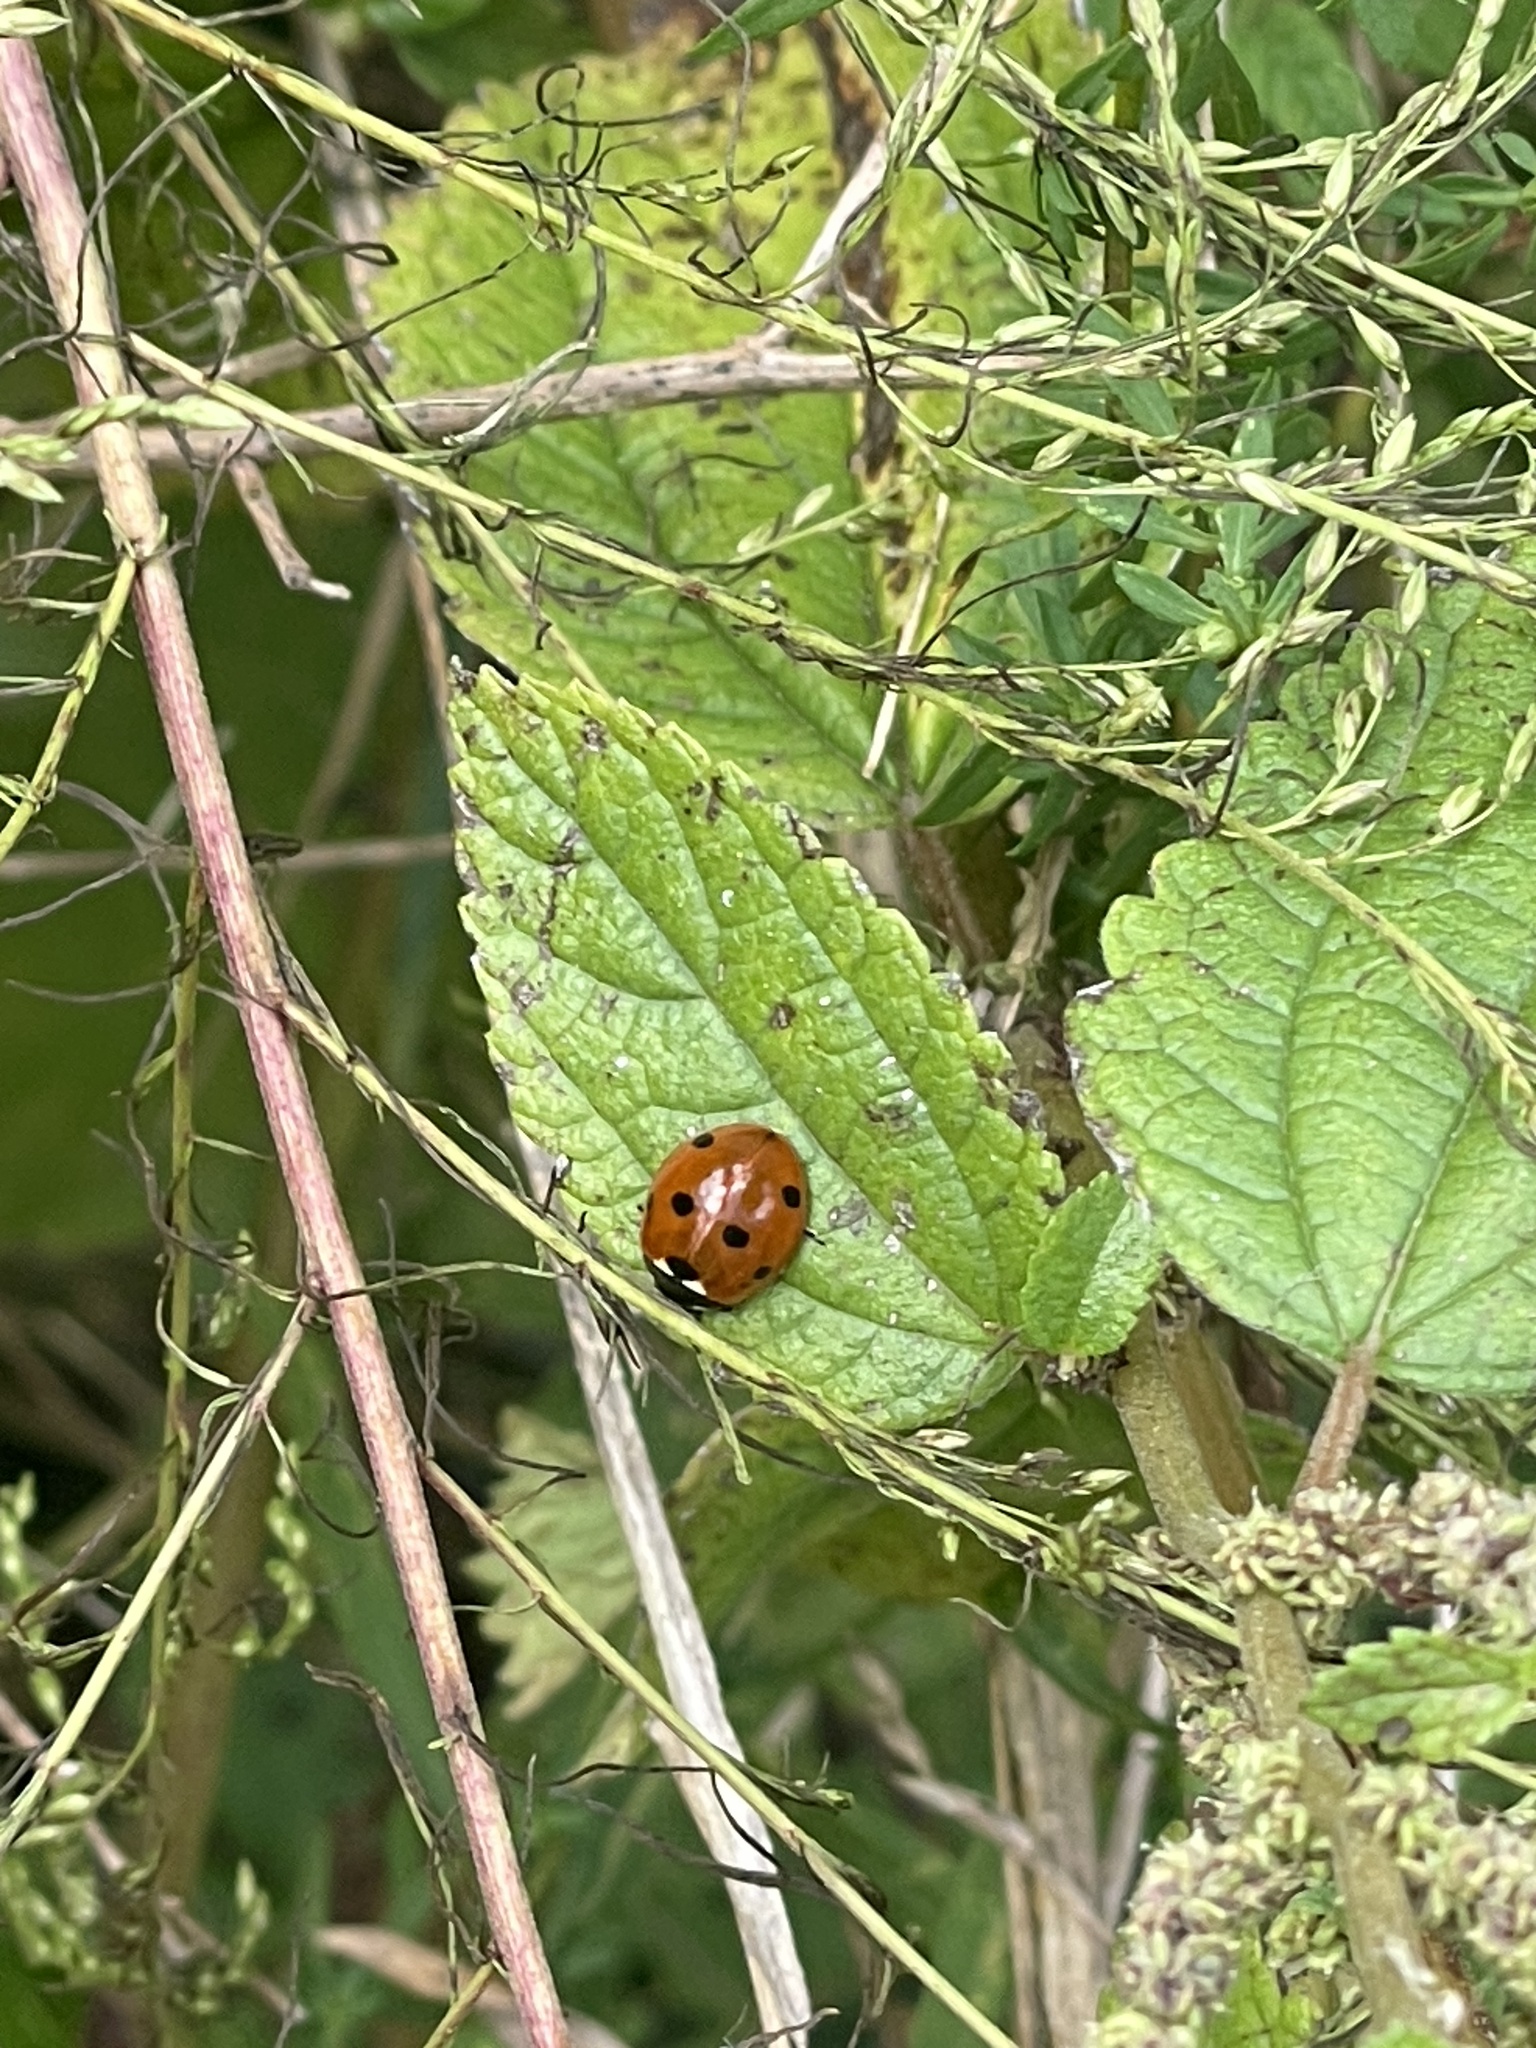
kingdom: Animalia
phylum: Arthropoda
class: Insecta
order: Coleoptera
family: Coccinellidae
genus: Coccinella
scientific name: Coccinella septempunctata
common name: Sevenspotted lady beetle
